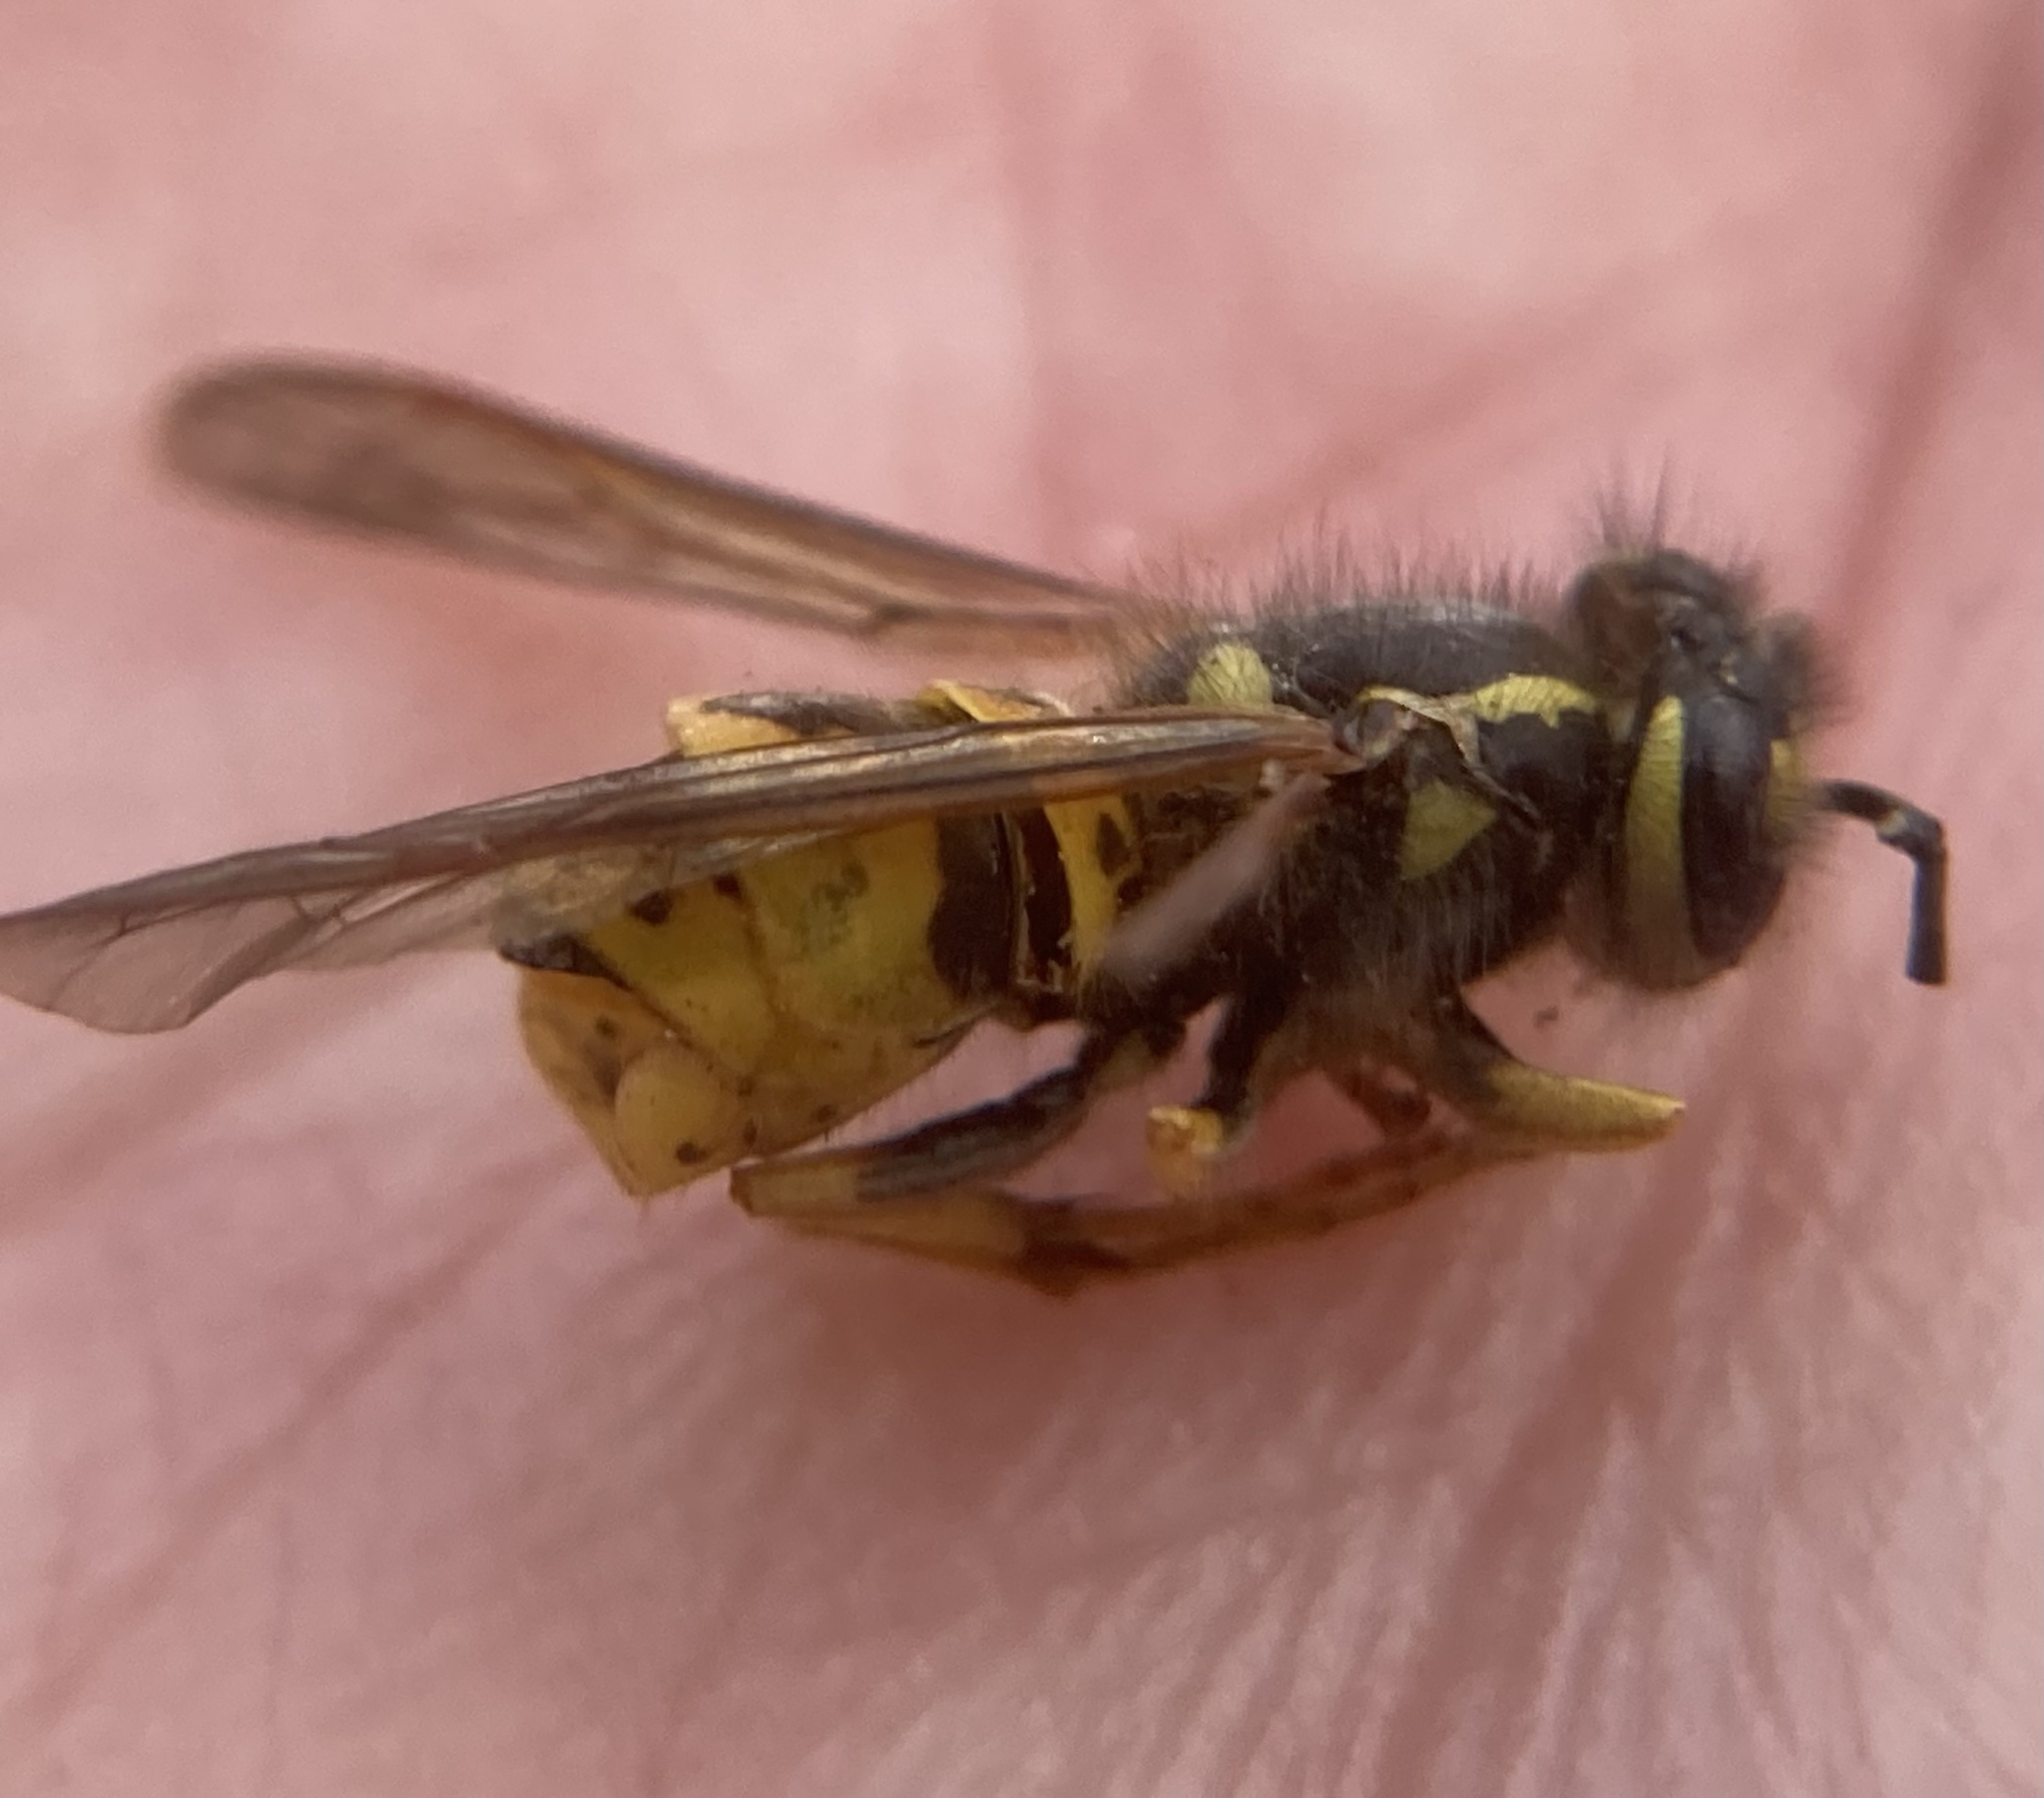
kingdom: Animalia
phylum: Arthropoda
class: Insecta
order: Hymenoptera
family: Vespidae
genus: Vespula
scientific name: Vespula germanica
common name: German wasp
